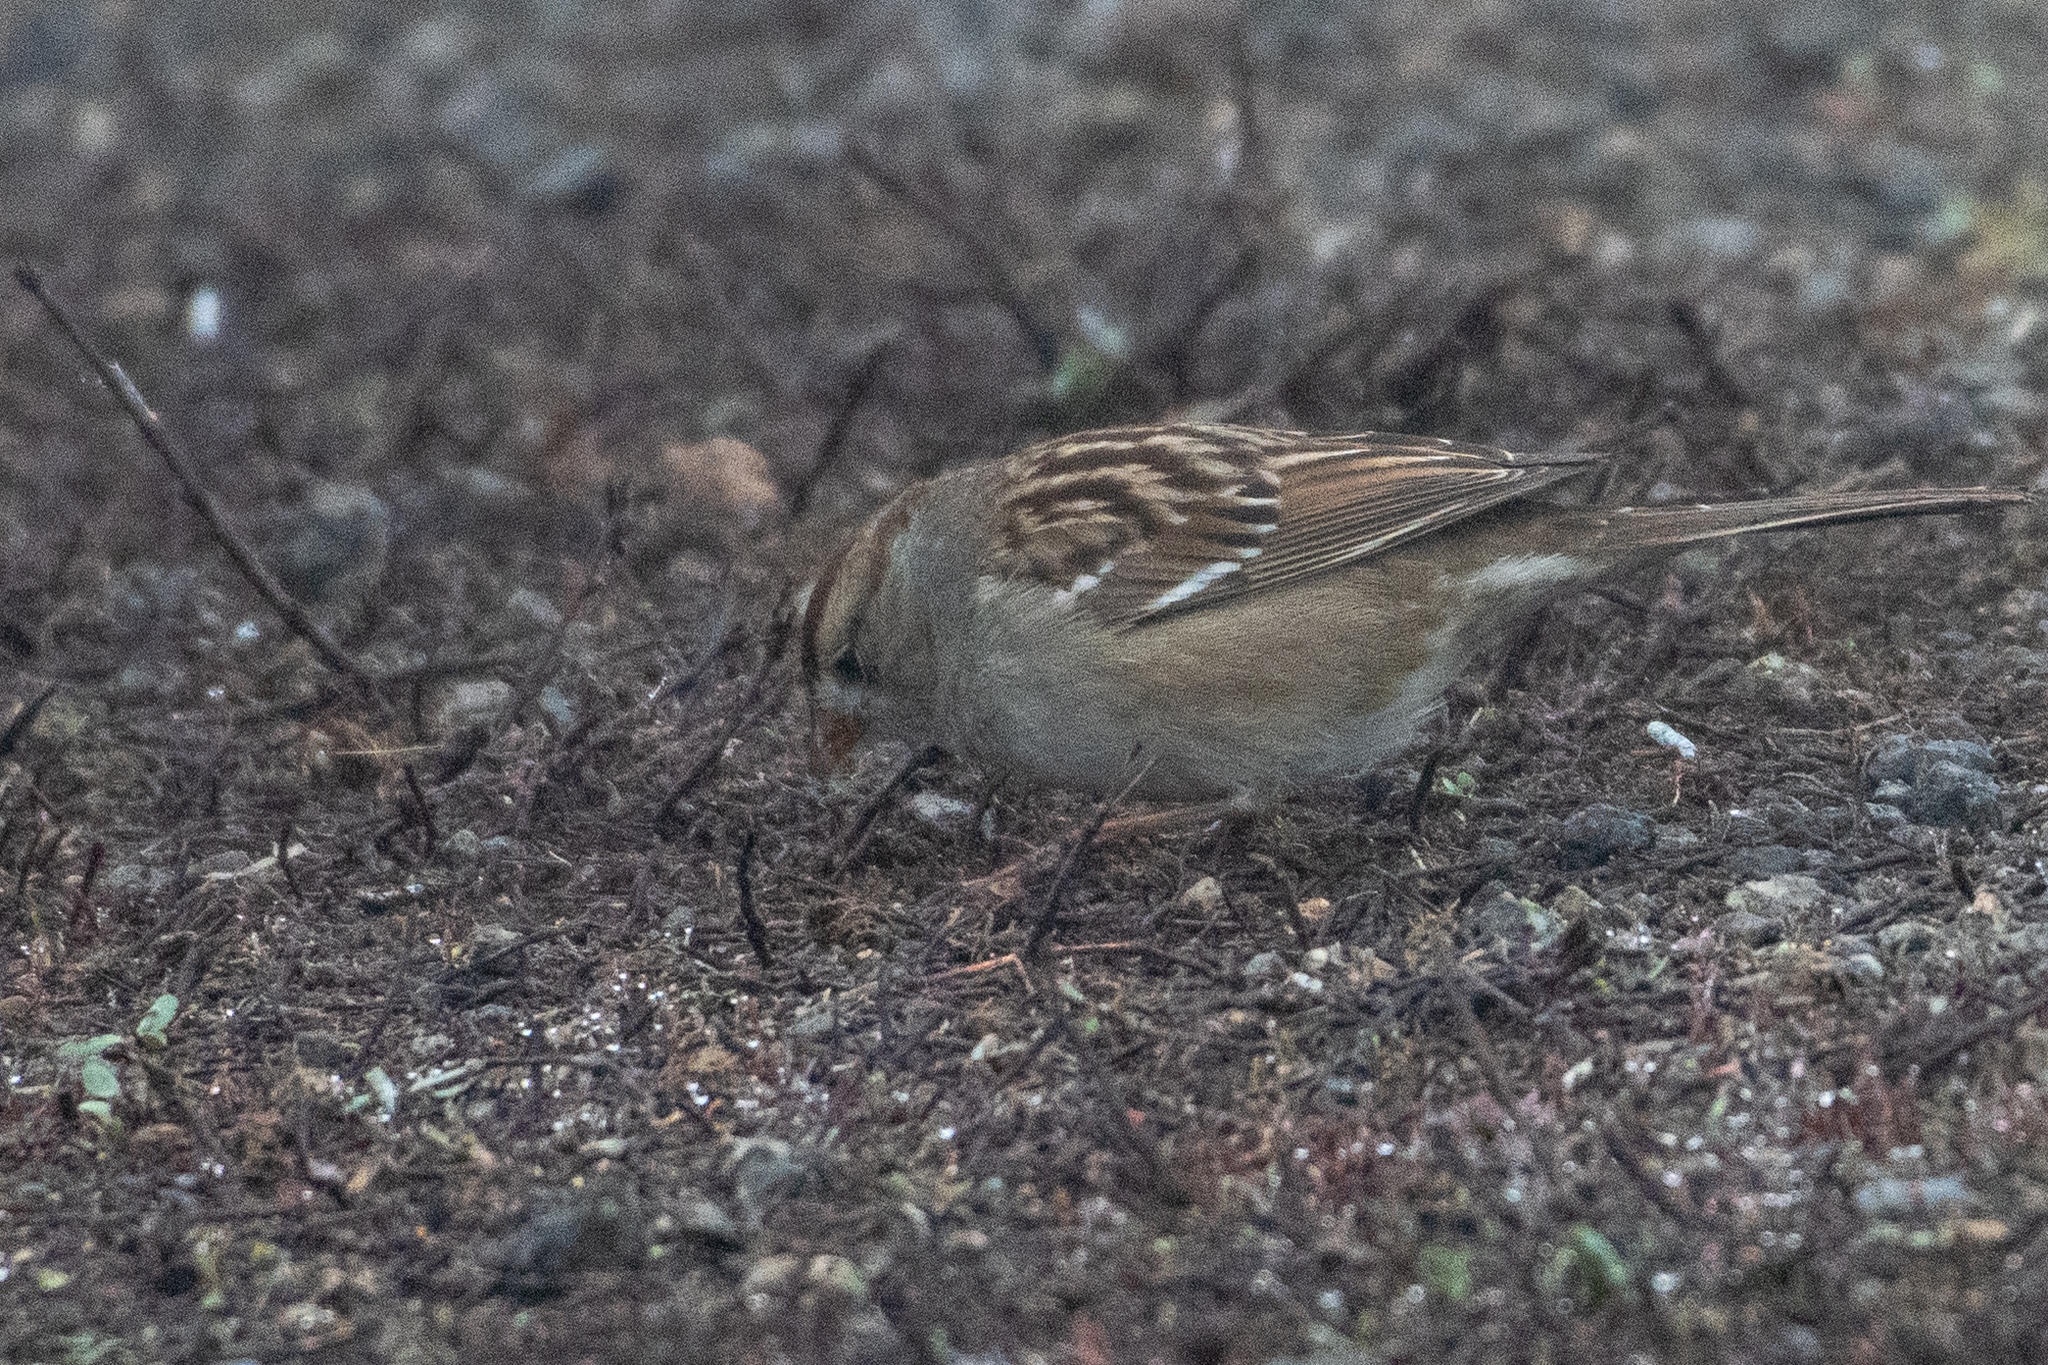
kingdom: Animalia
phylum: Chordata
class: Aves
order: Passeriformes
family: Passerellidae
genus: Zonotrichia
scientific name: Zonotrichia leucophrys
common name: White-crowned sparrow
